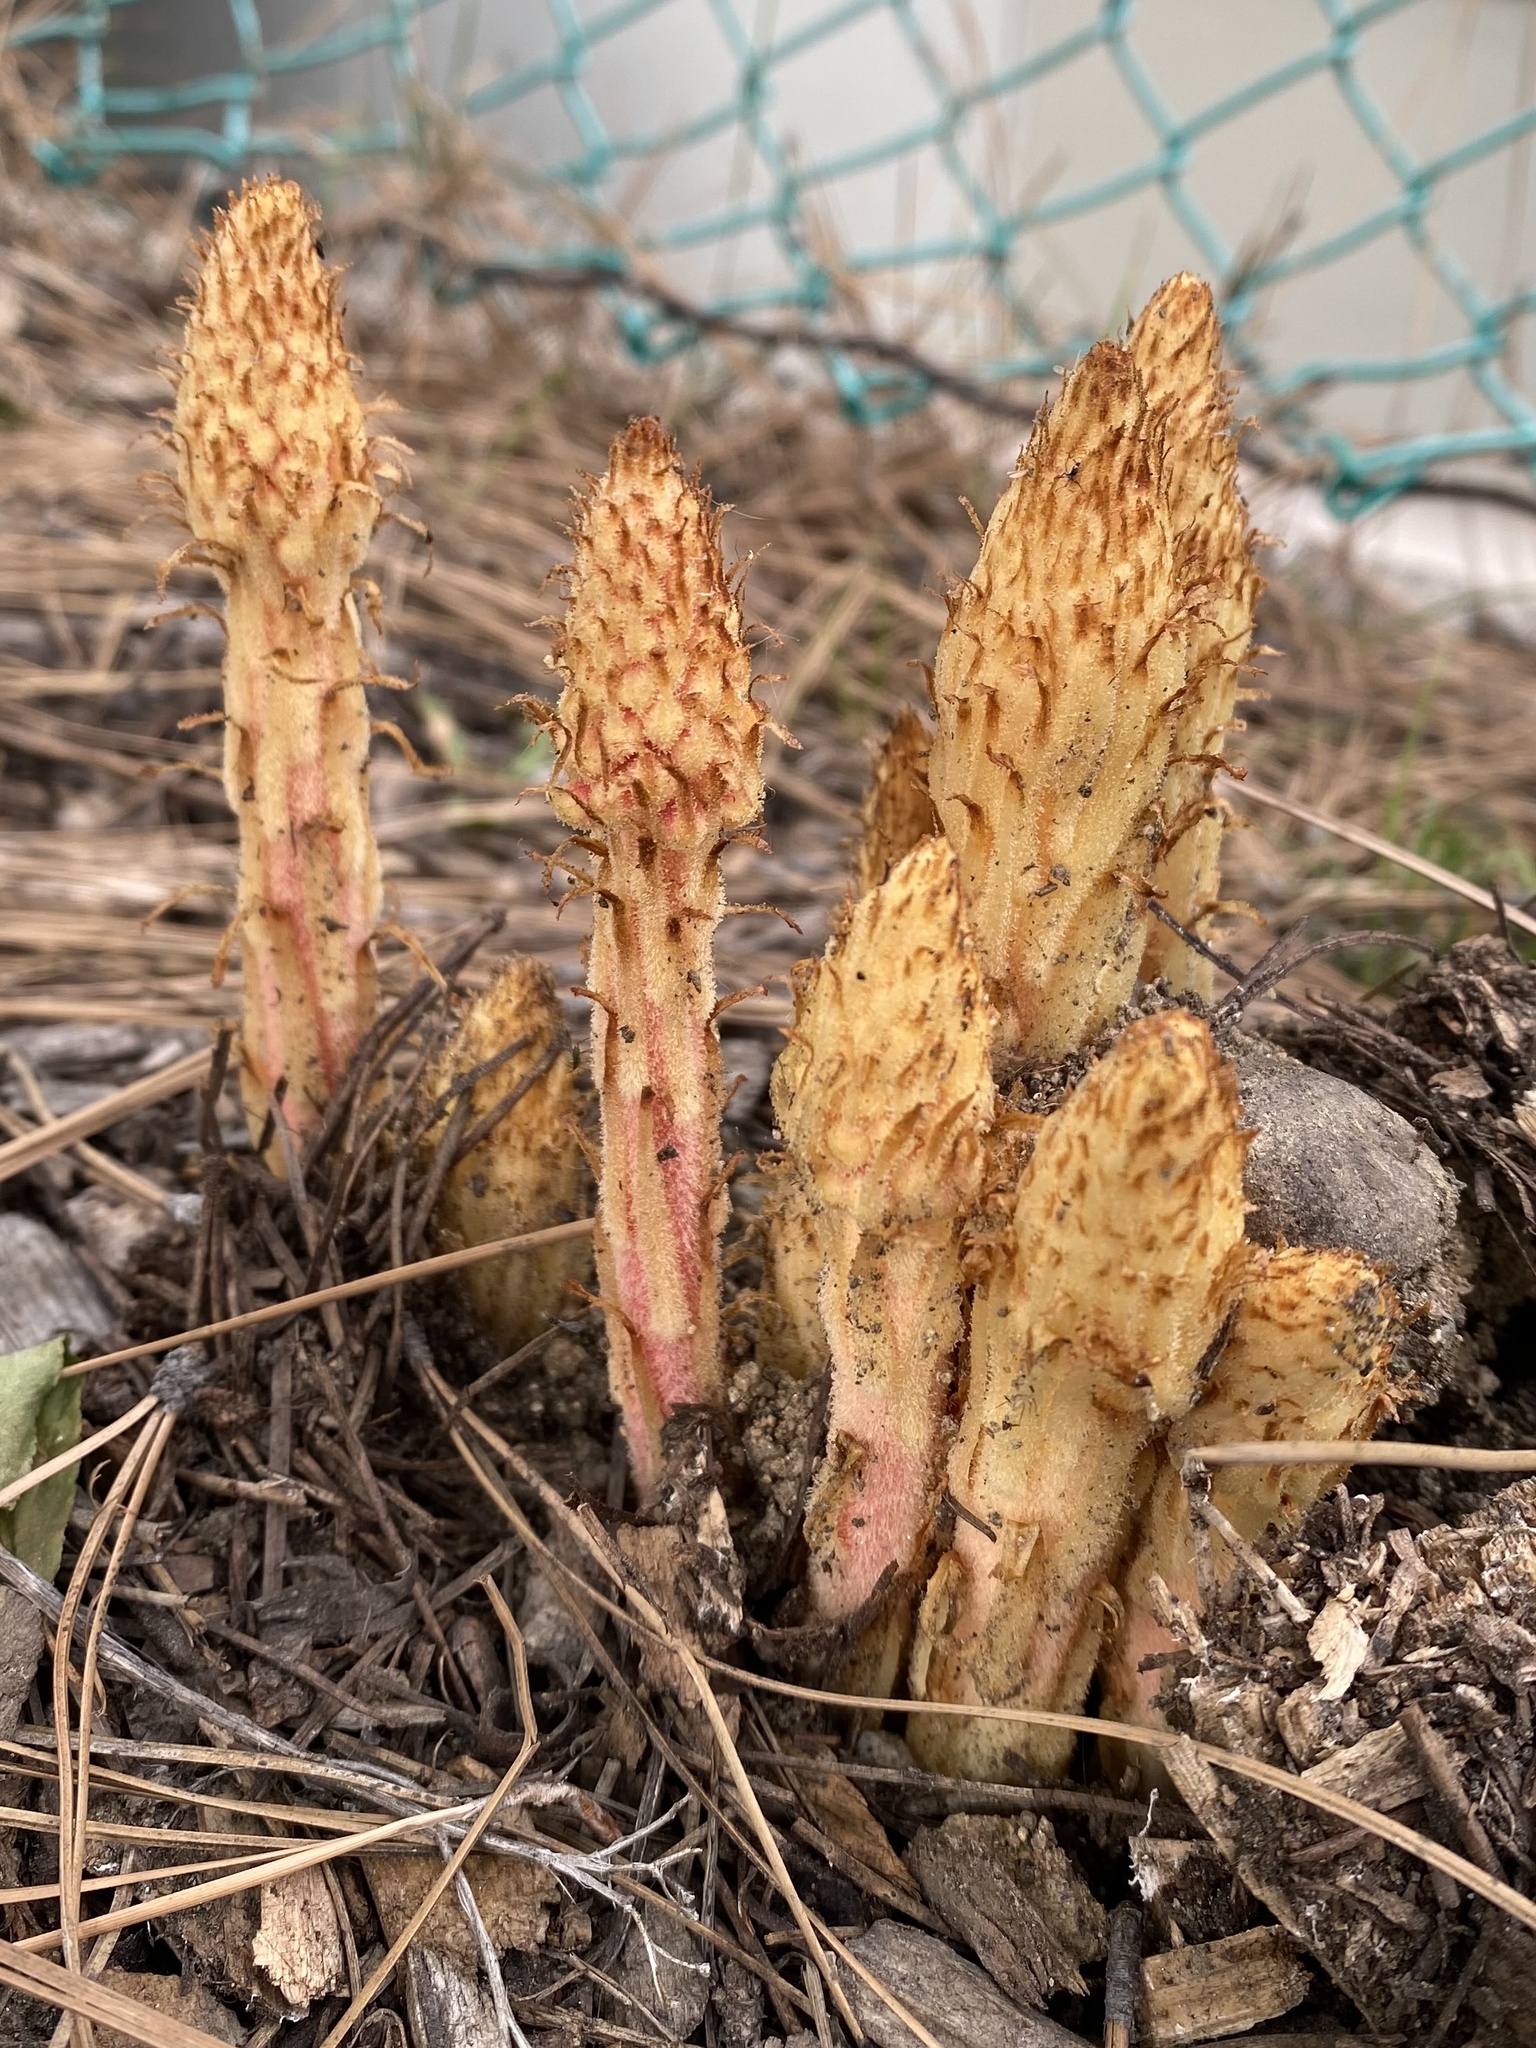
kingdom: Plantae
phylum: Tracheophyta
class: Magnoliopsida
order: Ericales
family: Ericaceae
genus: Pterospora
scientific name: Pterospora andromedea
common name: Giant bird's-nest
